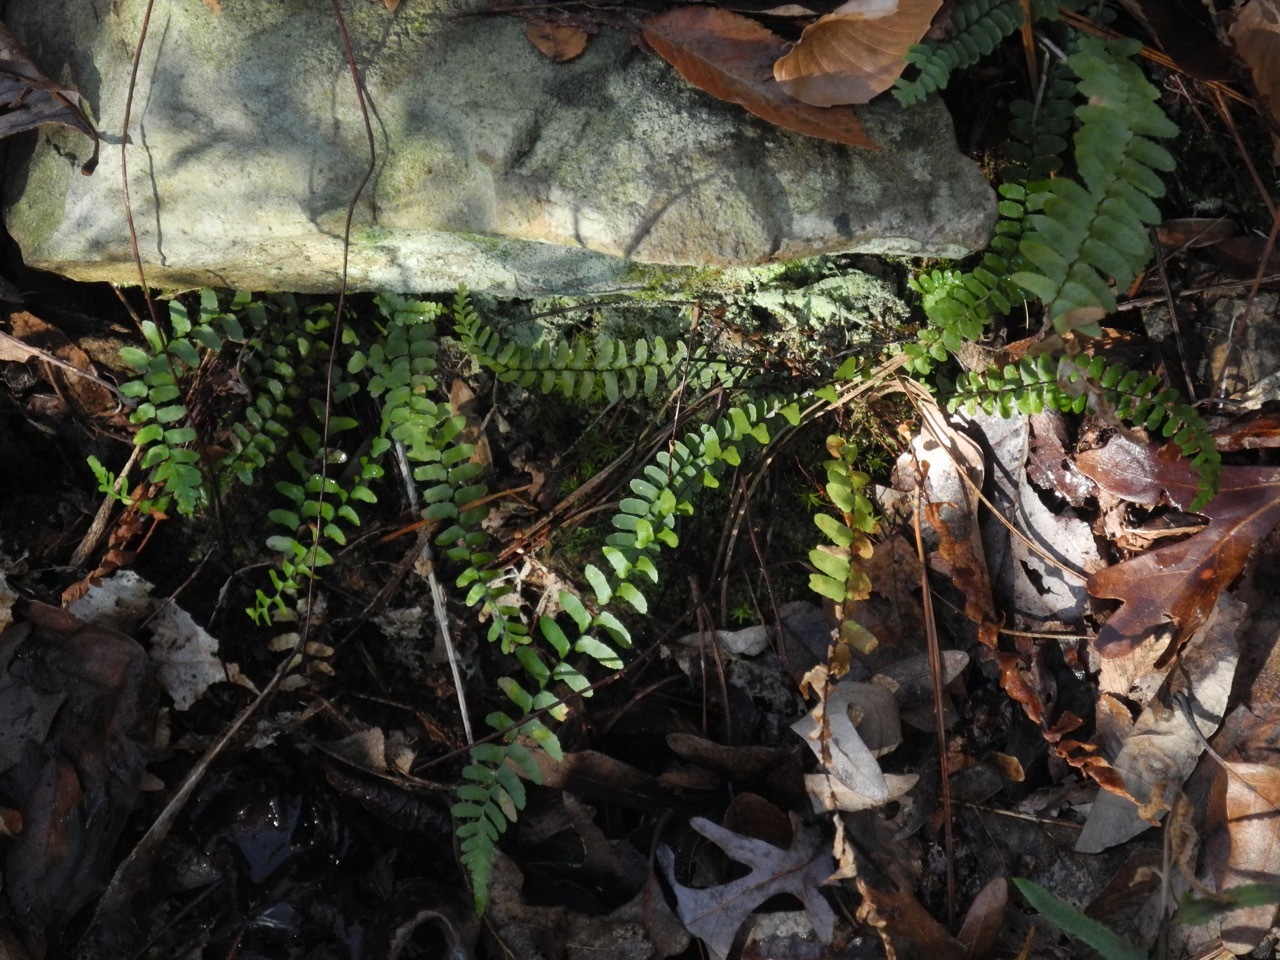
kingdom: Plantae
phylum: Tracheophyta
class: Polypodiopsida
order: Polypodiales
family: Aspleniaceae
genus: Asplenium
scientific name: Asplenium platyneuron
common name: Ebony spleenwort
